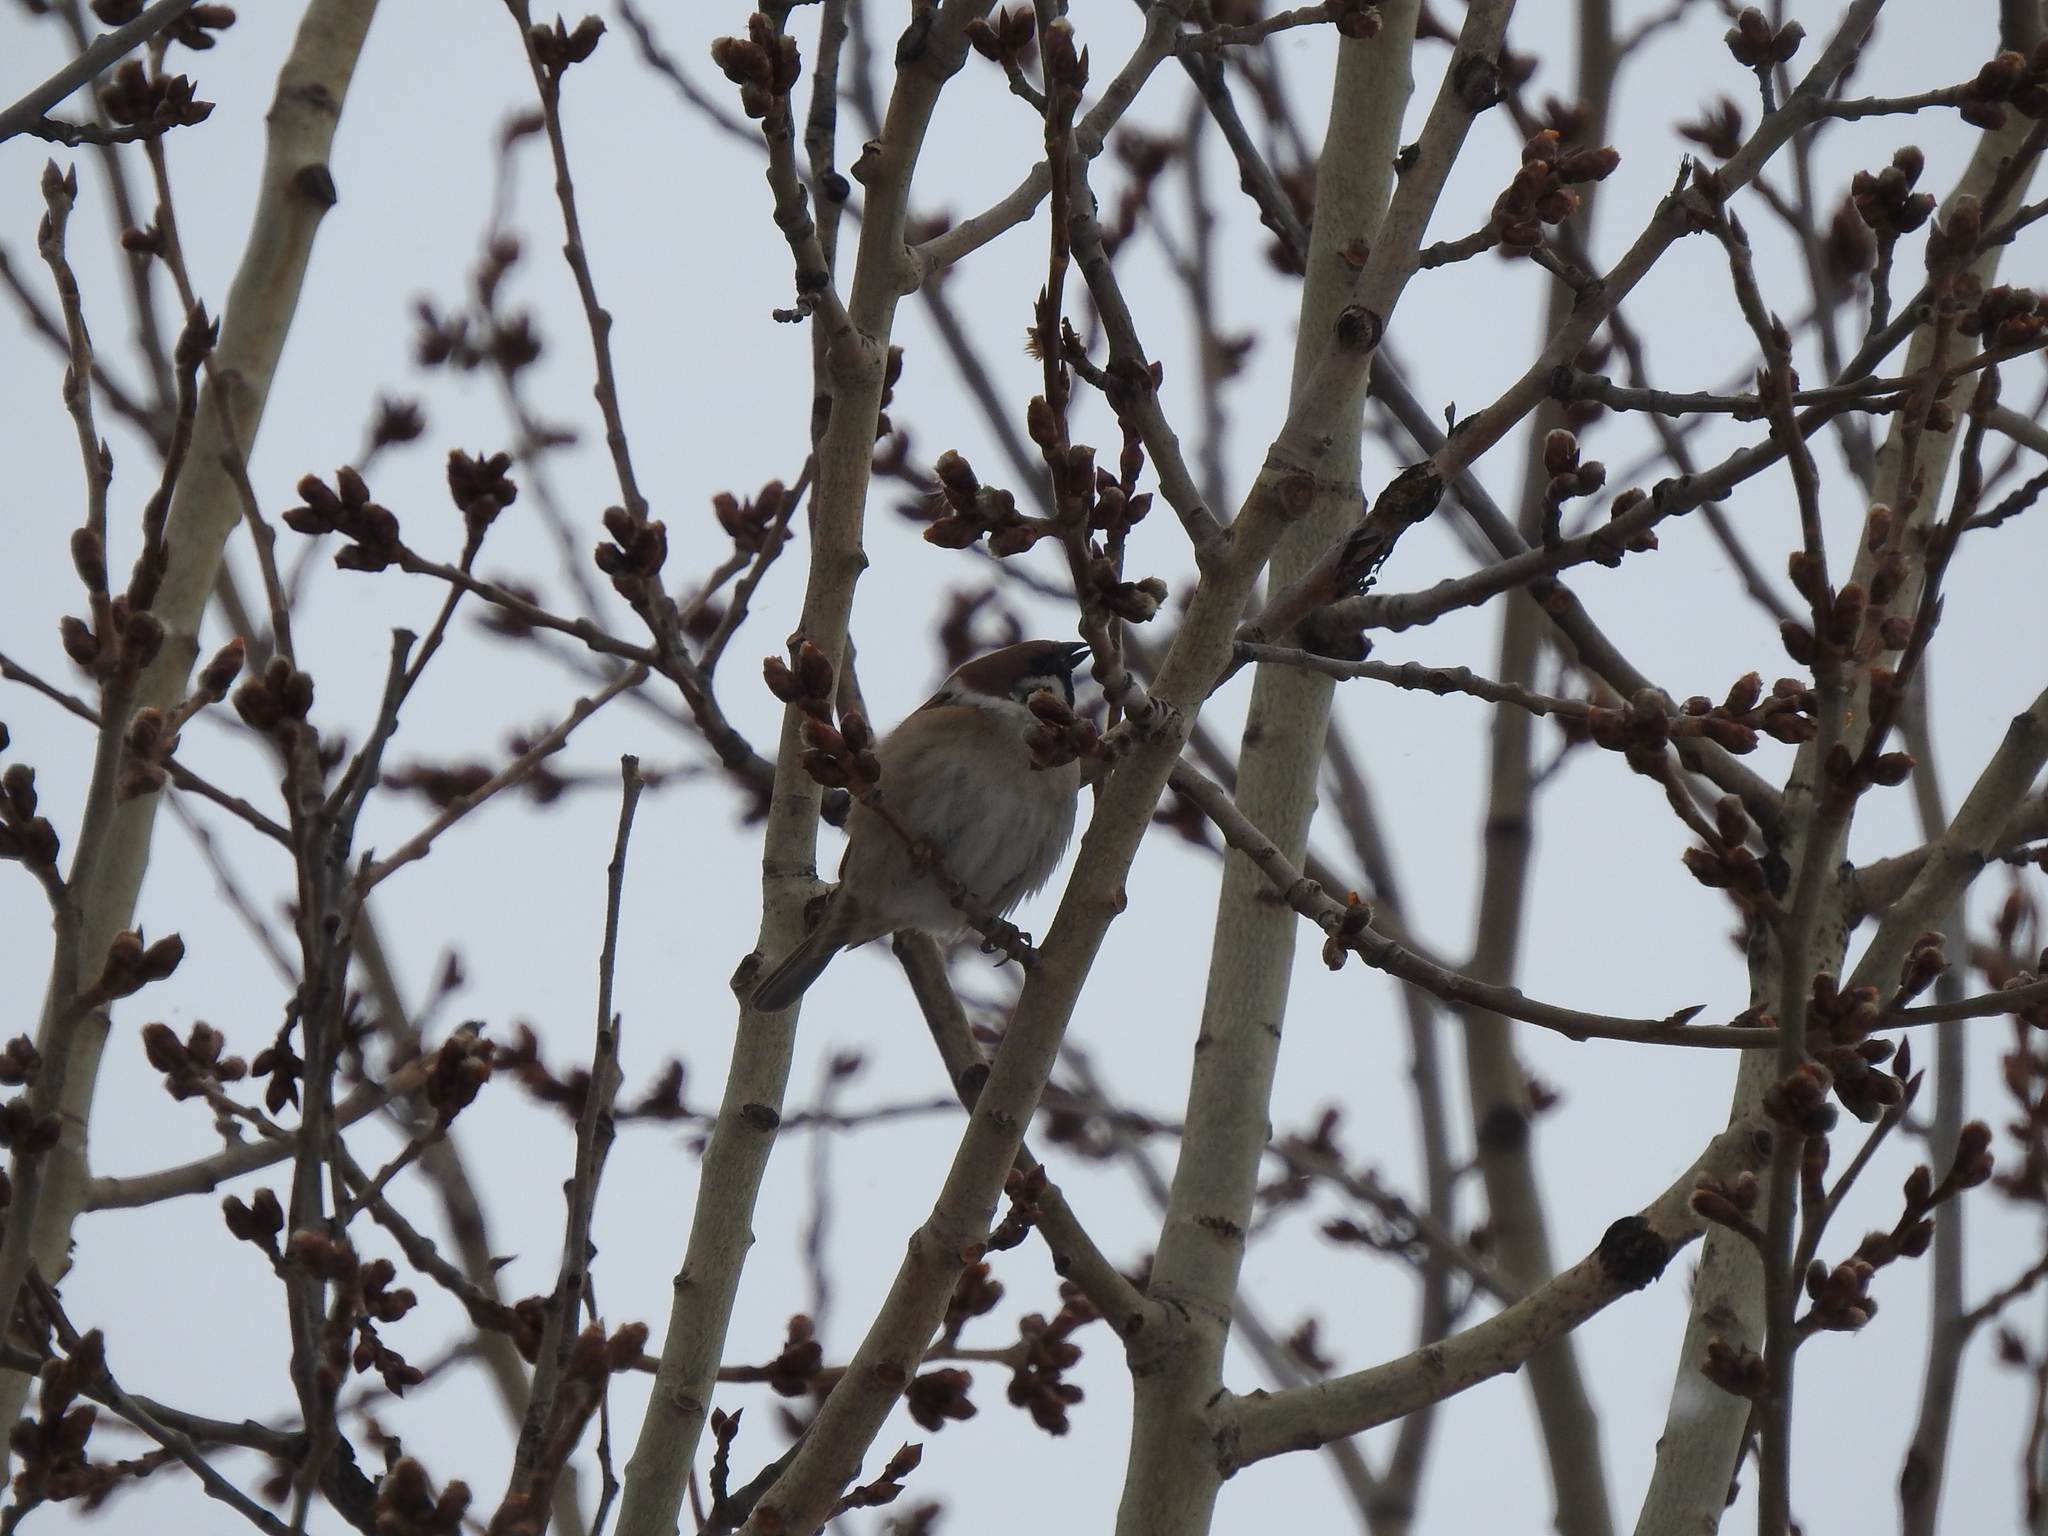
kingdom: Animalia
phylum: Chordata
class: Aves
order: Passeriformes
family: Passeridae
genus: Passer
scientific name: Passer montanus
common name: Eurasian tree sparrow
